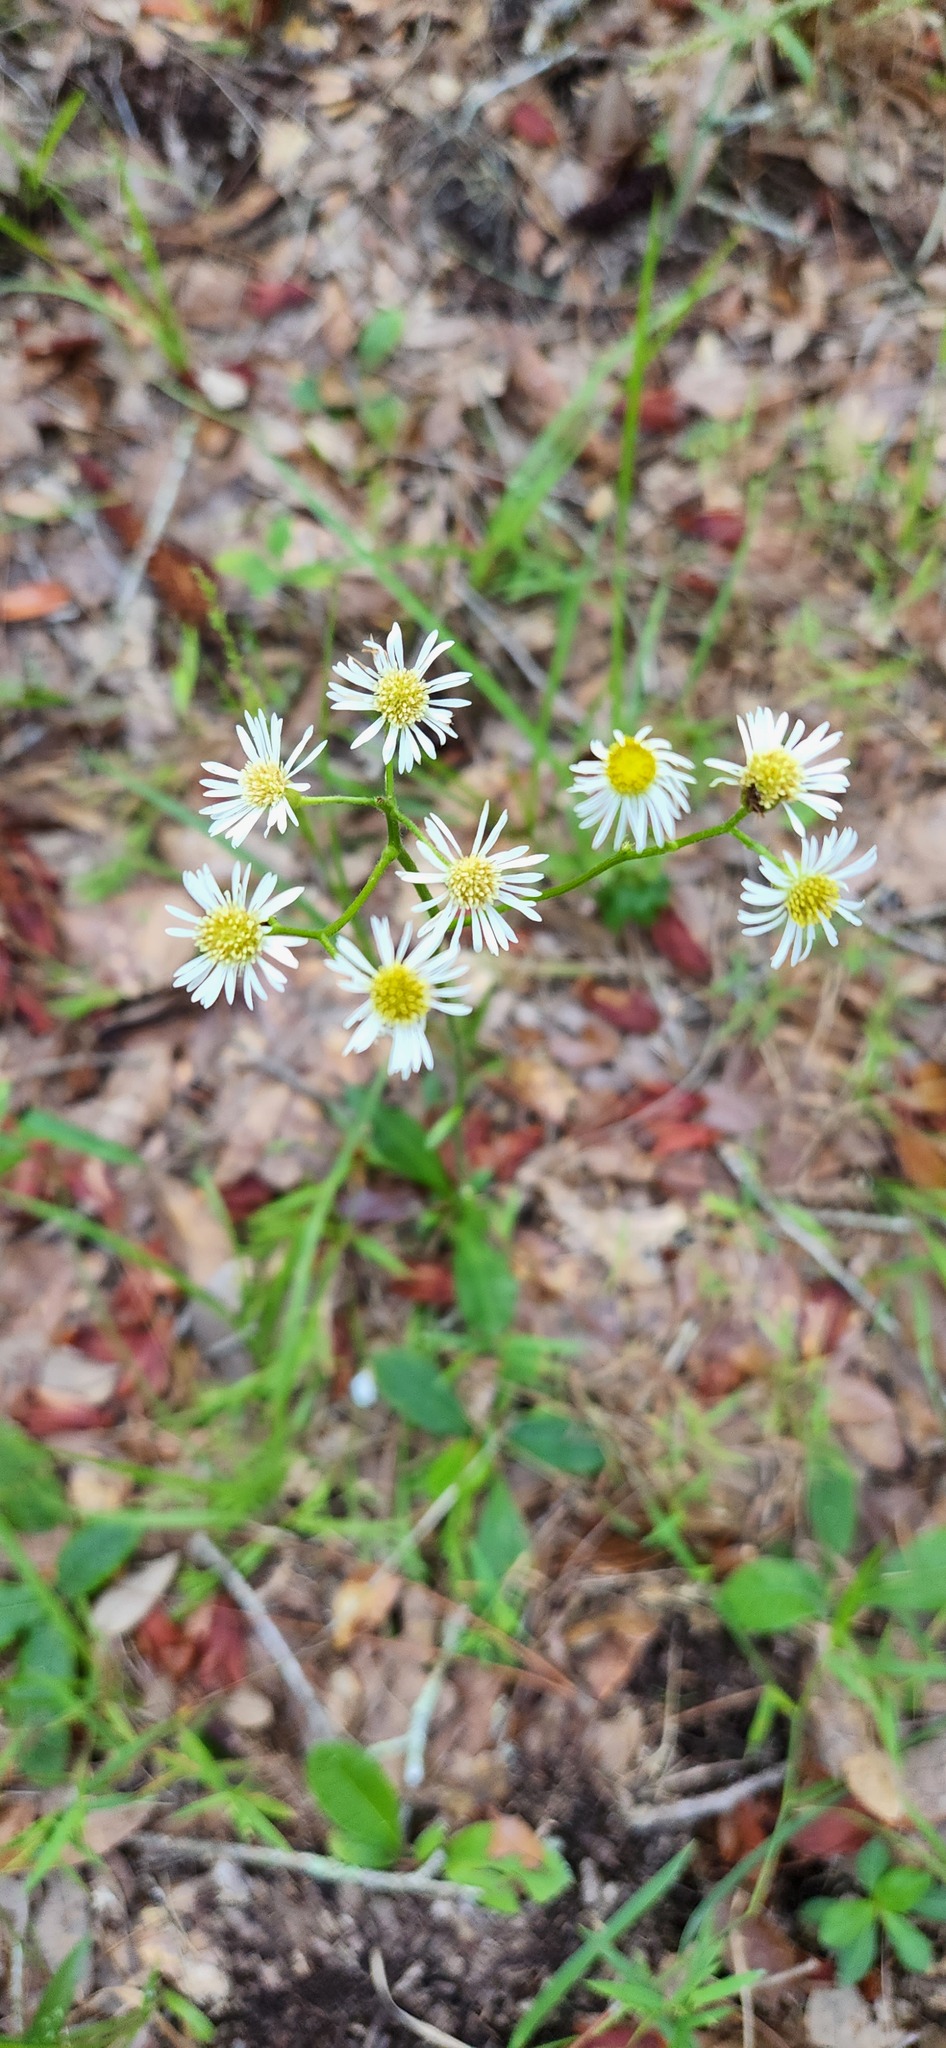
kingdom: Plantae
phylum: Tracheophyta
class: Magnoliopsida
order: Asterales
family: Asteraceae
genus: Erigeron
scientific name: Erigeron vernus
